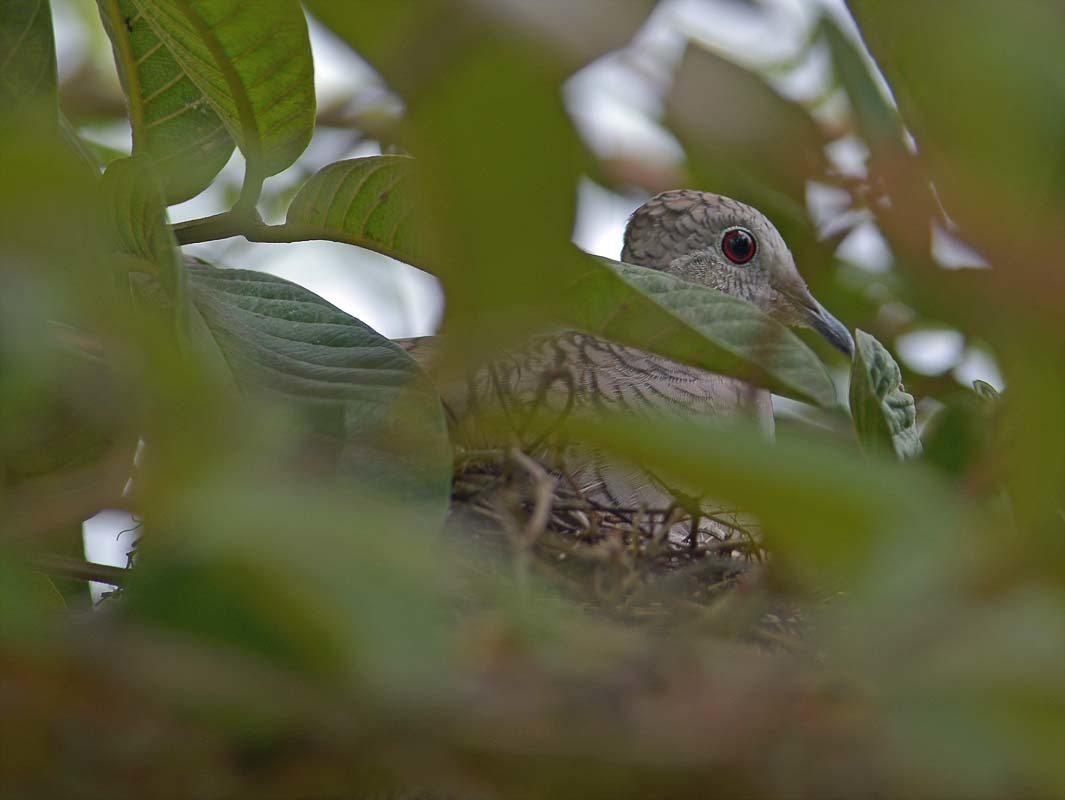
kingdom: Animalia
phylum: Chordata
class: Aves
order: Columbiformes
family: Columbidae
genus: Columbina
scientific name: Columbina inca
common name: Inca dove
